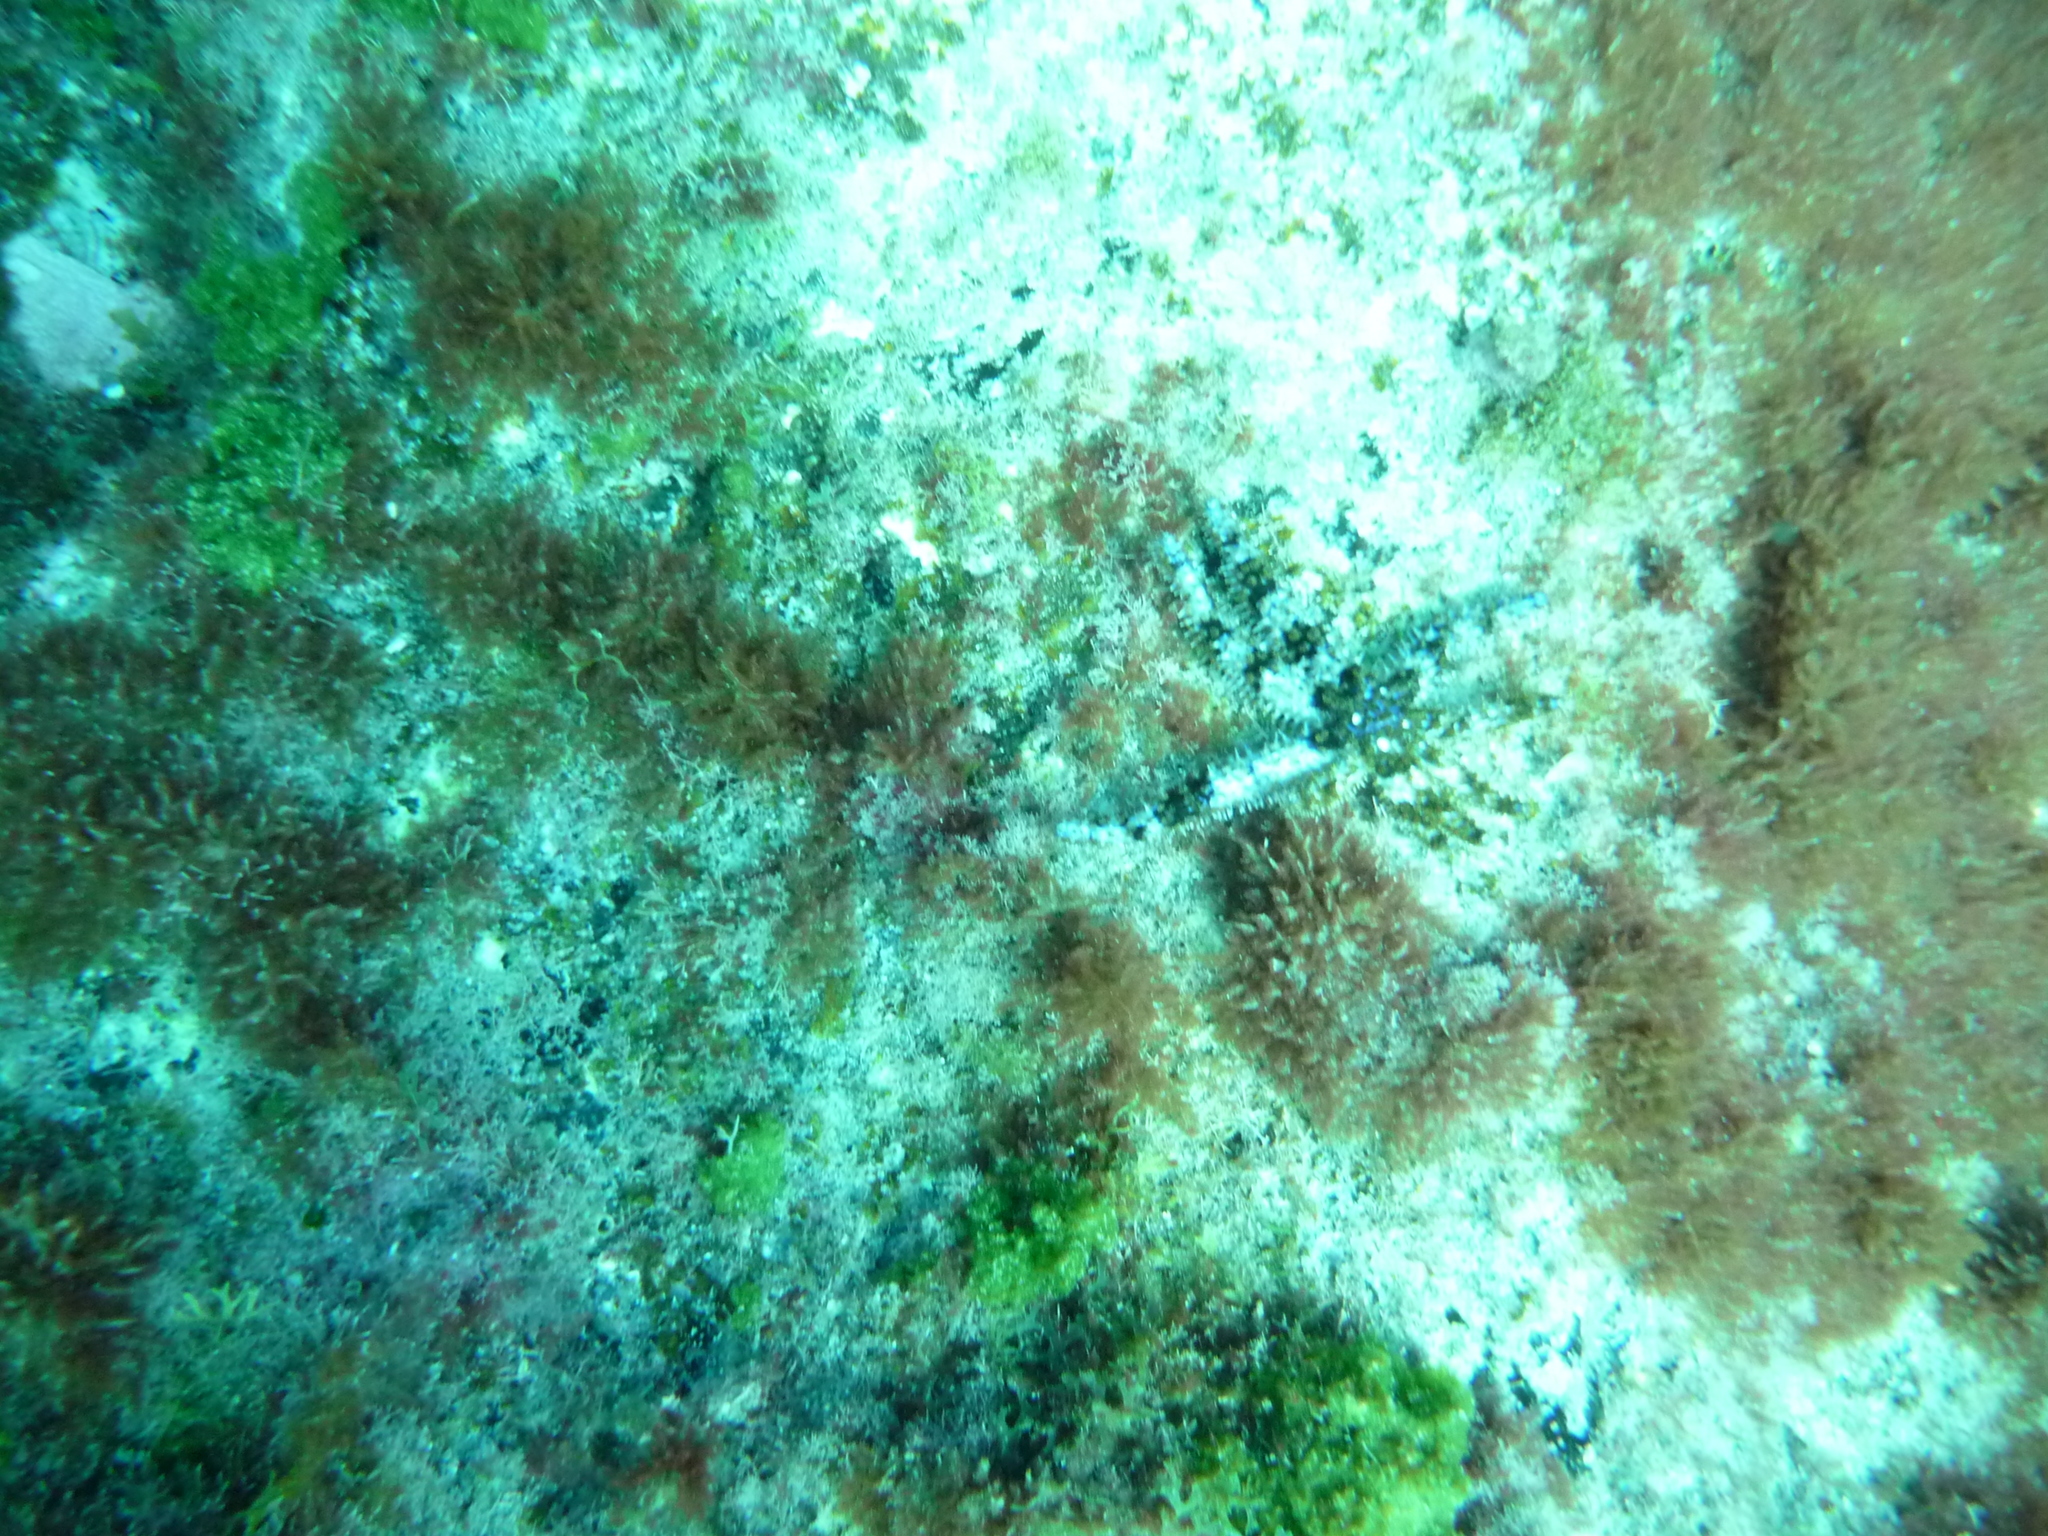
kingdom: Animalia
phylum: Echinodermata
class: Asteroidea
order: Forcipulatida
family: Asteriidae
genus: Coscinasterias
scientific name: Coscinasterias tenuispina
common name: Blue spiny starfish
